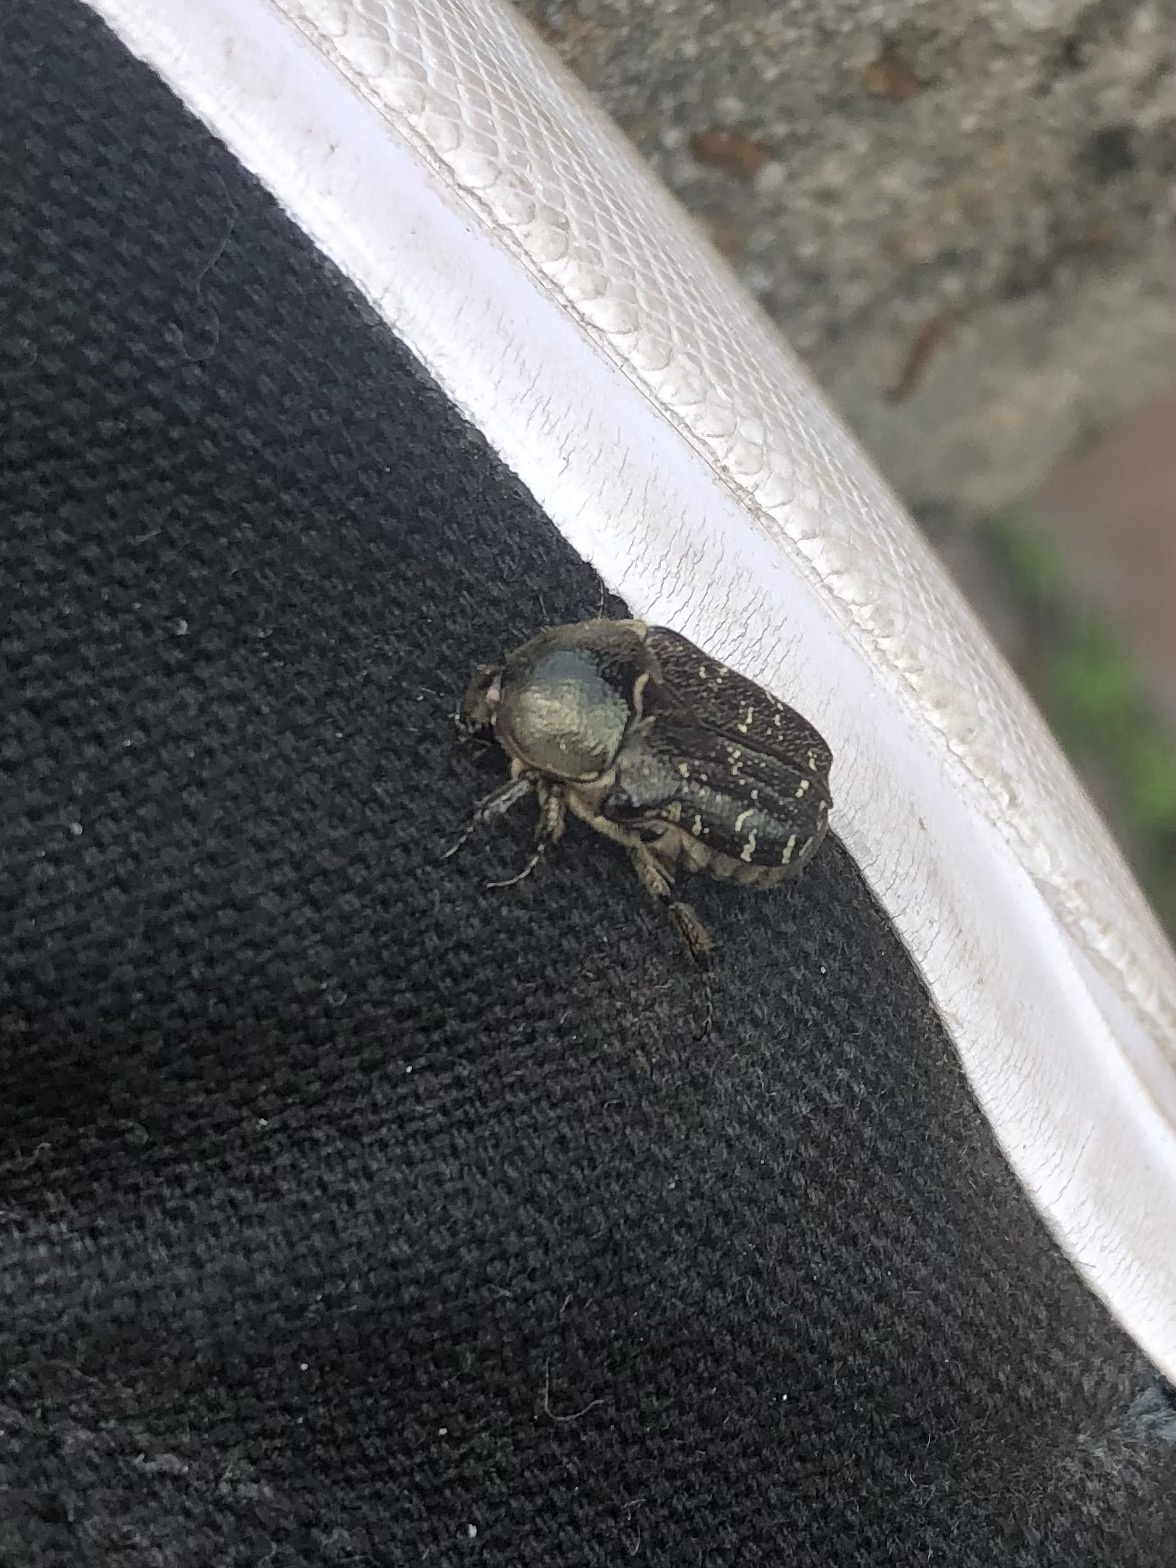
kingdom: Animalia
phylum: Arthropoda
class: Insecta
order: Coleoptera
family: Scarabaeidae
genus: Euphoria
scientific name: Euphoria sepulcralis
